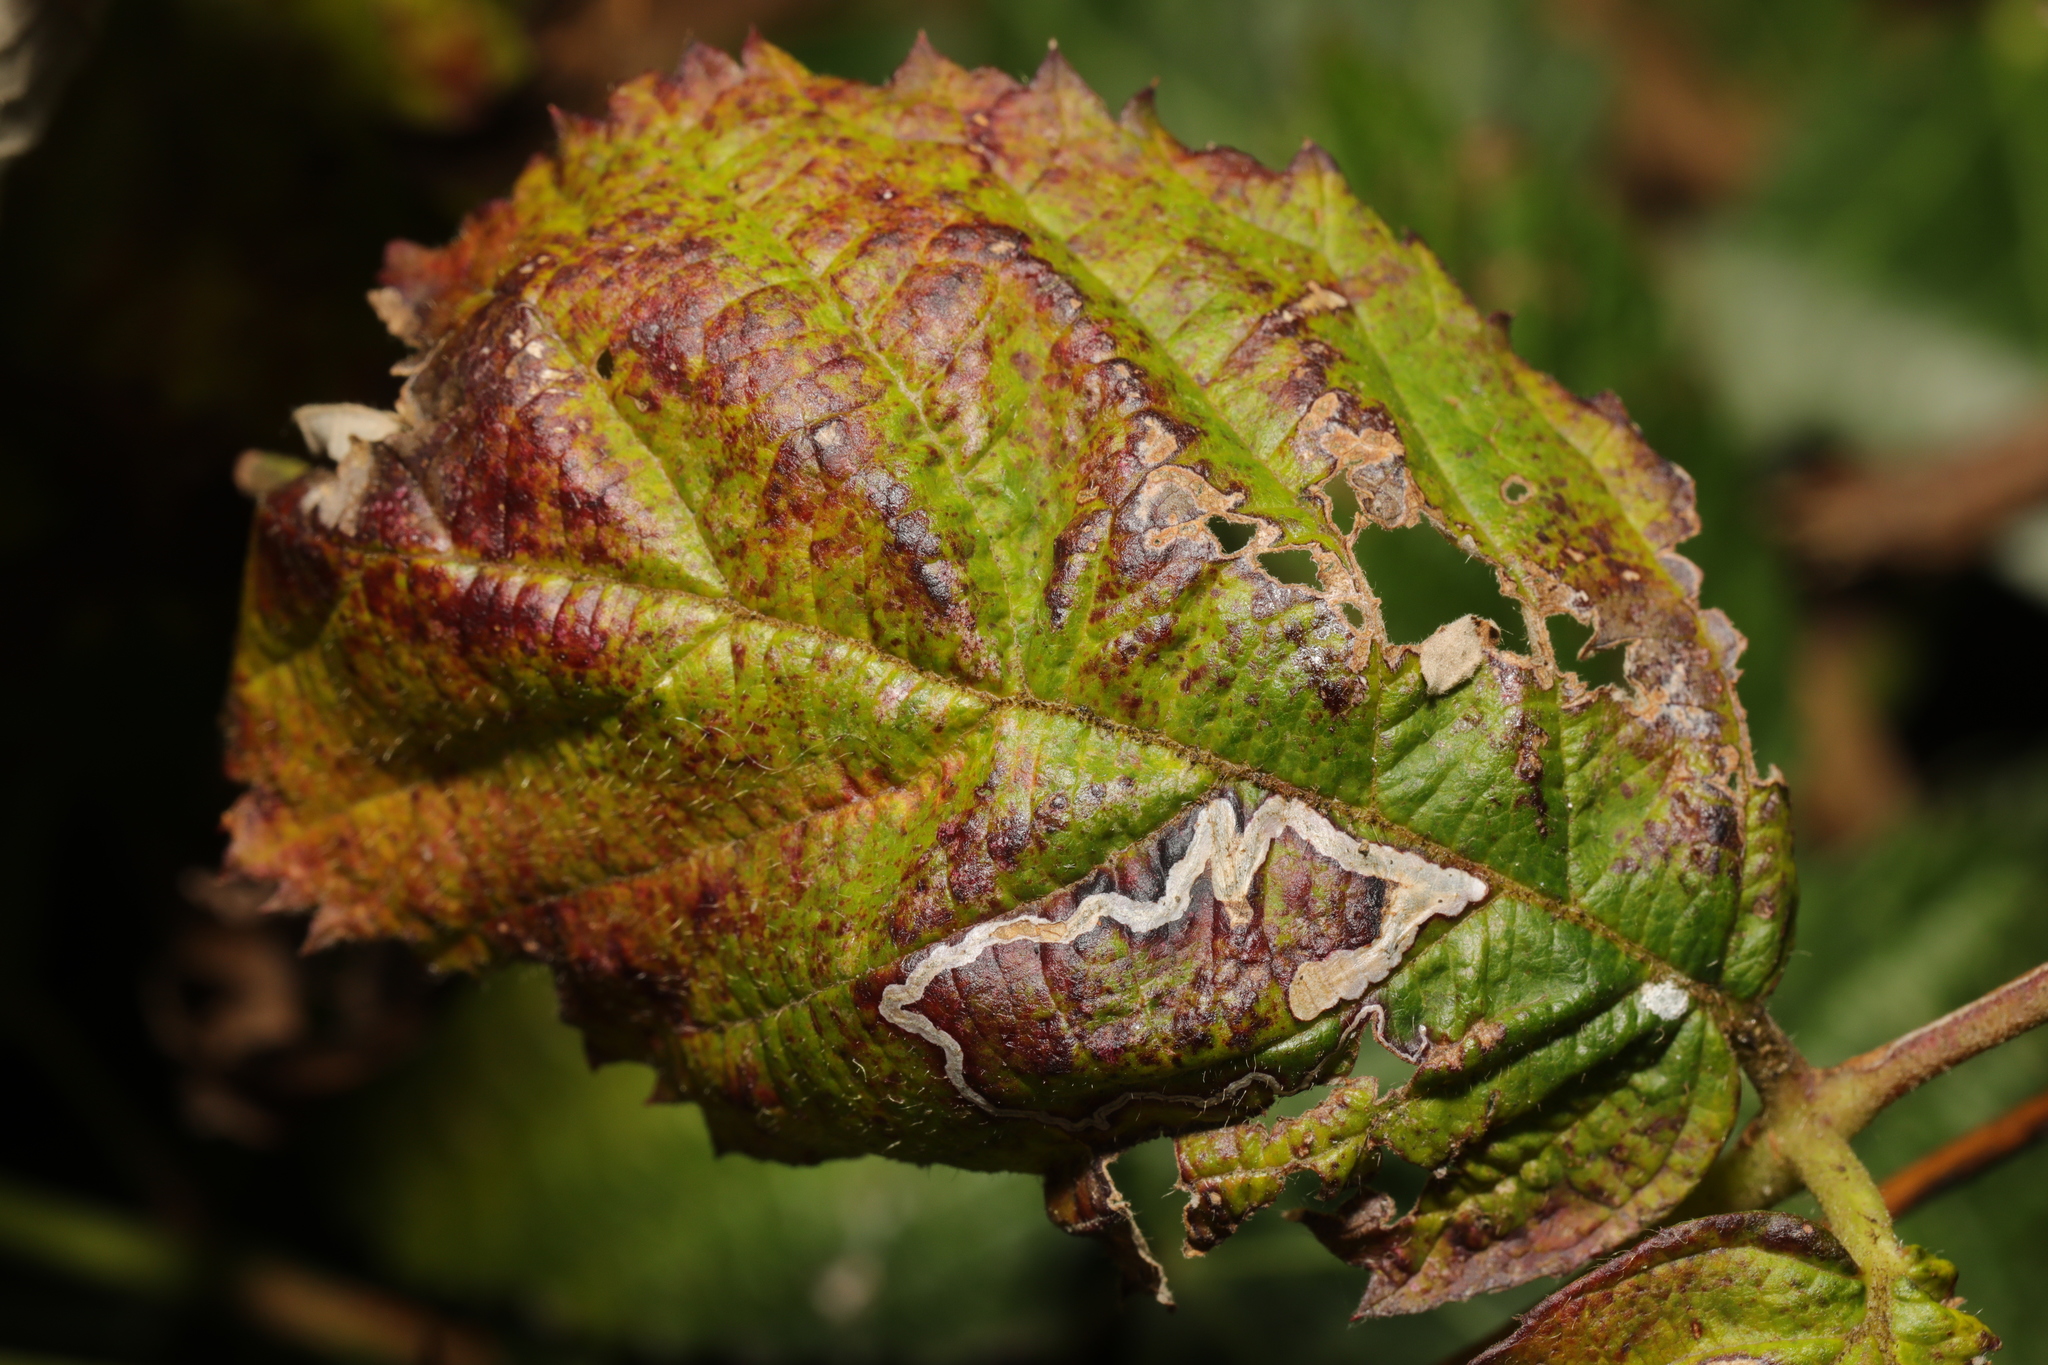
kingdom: Animalia
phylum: Arthropoda
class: Insecta
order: Lepidoptera
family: Nepticulidae
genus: Stigmella
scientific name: Stigmella aurella
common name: Golden pigmy
